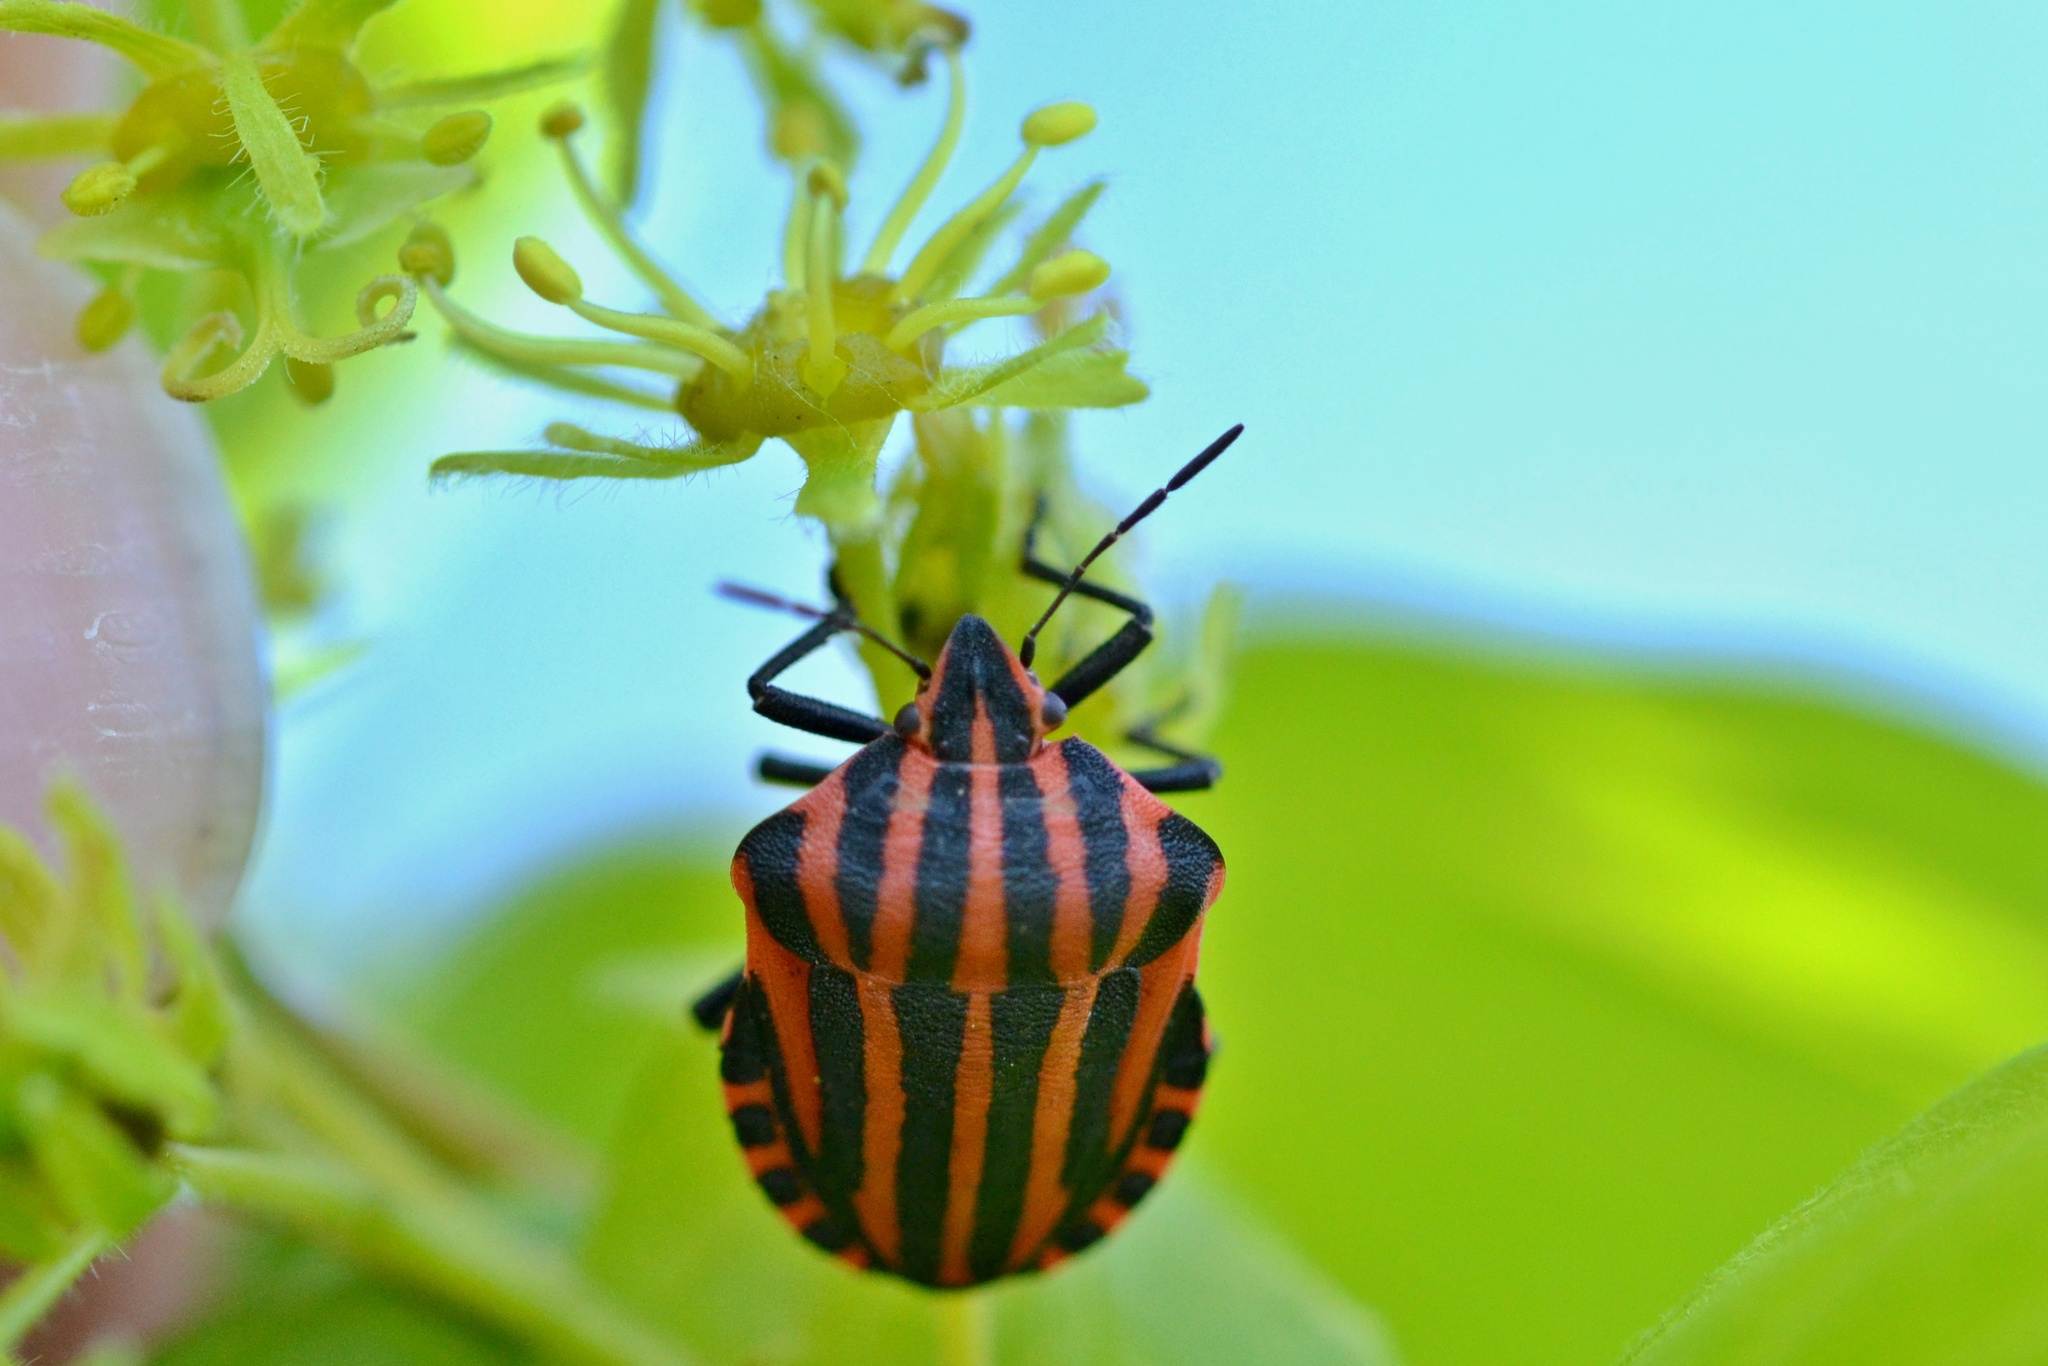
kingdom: Animalia
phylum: Arthropoda
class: Insecta
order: Hemiptera
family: Pentatomidae
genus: Graphosoma
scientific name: Graphosoma italicum
